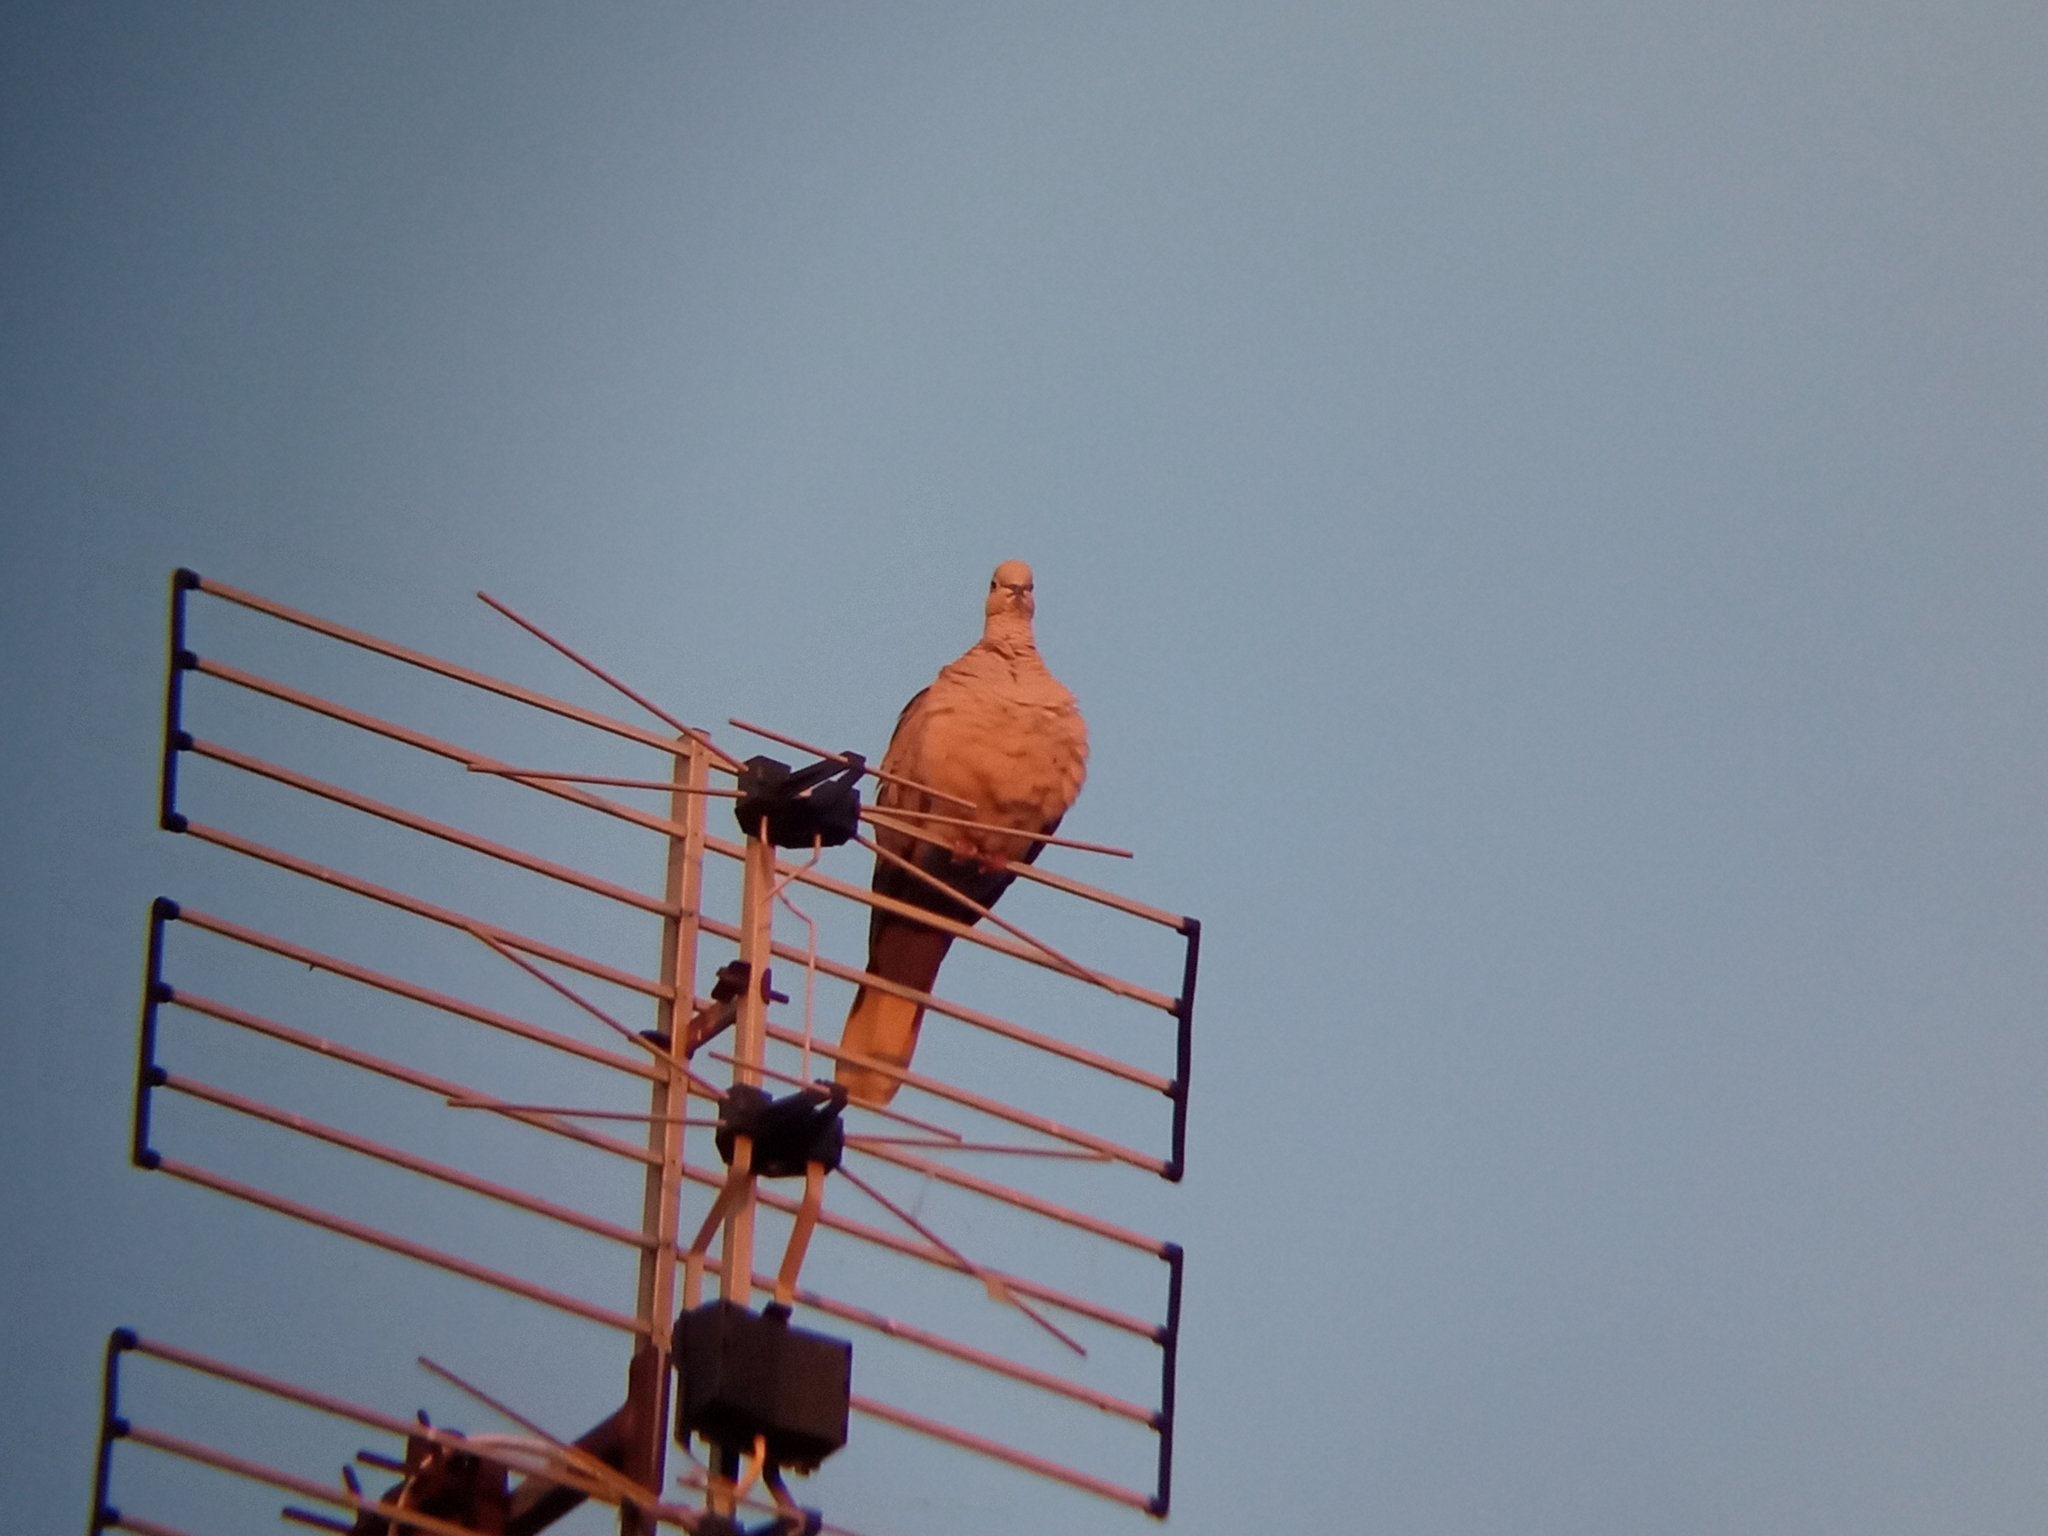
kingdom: Animalia
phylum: Chordata
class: Aves
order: Columbiformes
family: Columbidae
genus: Streptopelia
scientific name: Streptopelia decaocto
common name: Eurasian collared dove
